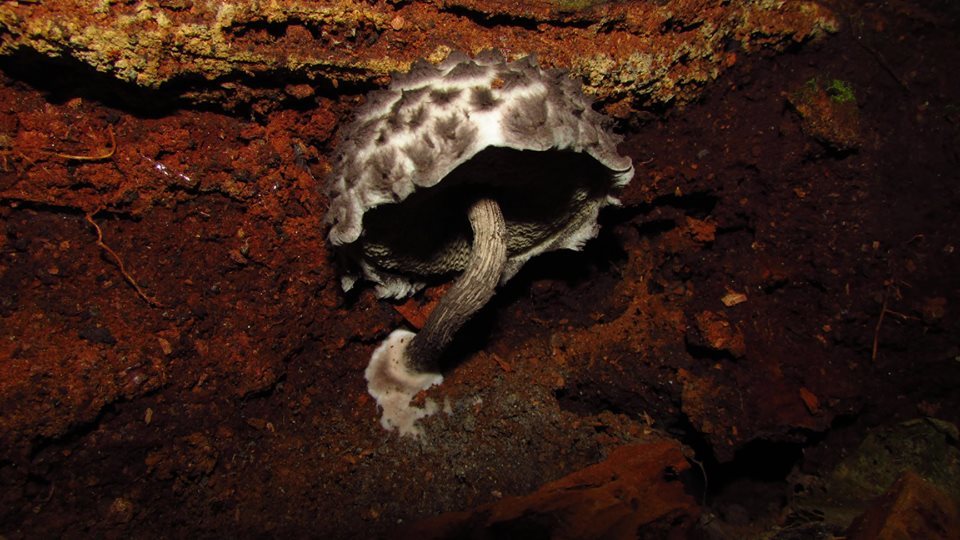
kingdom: Fungi
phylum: Basidiomycota
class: Agaricomycetes
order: Boletales
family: Boletaceae
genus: Strobilomyces
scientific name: Strobilomyces strobilaceus
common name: Old man of the woods
